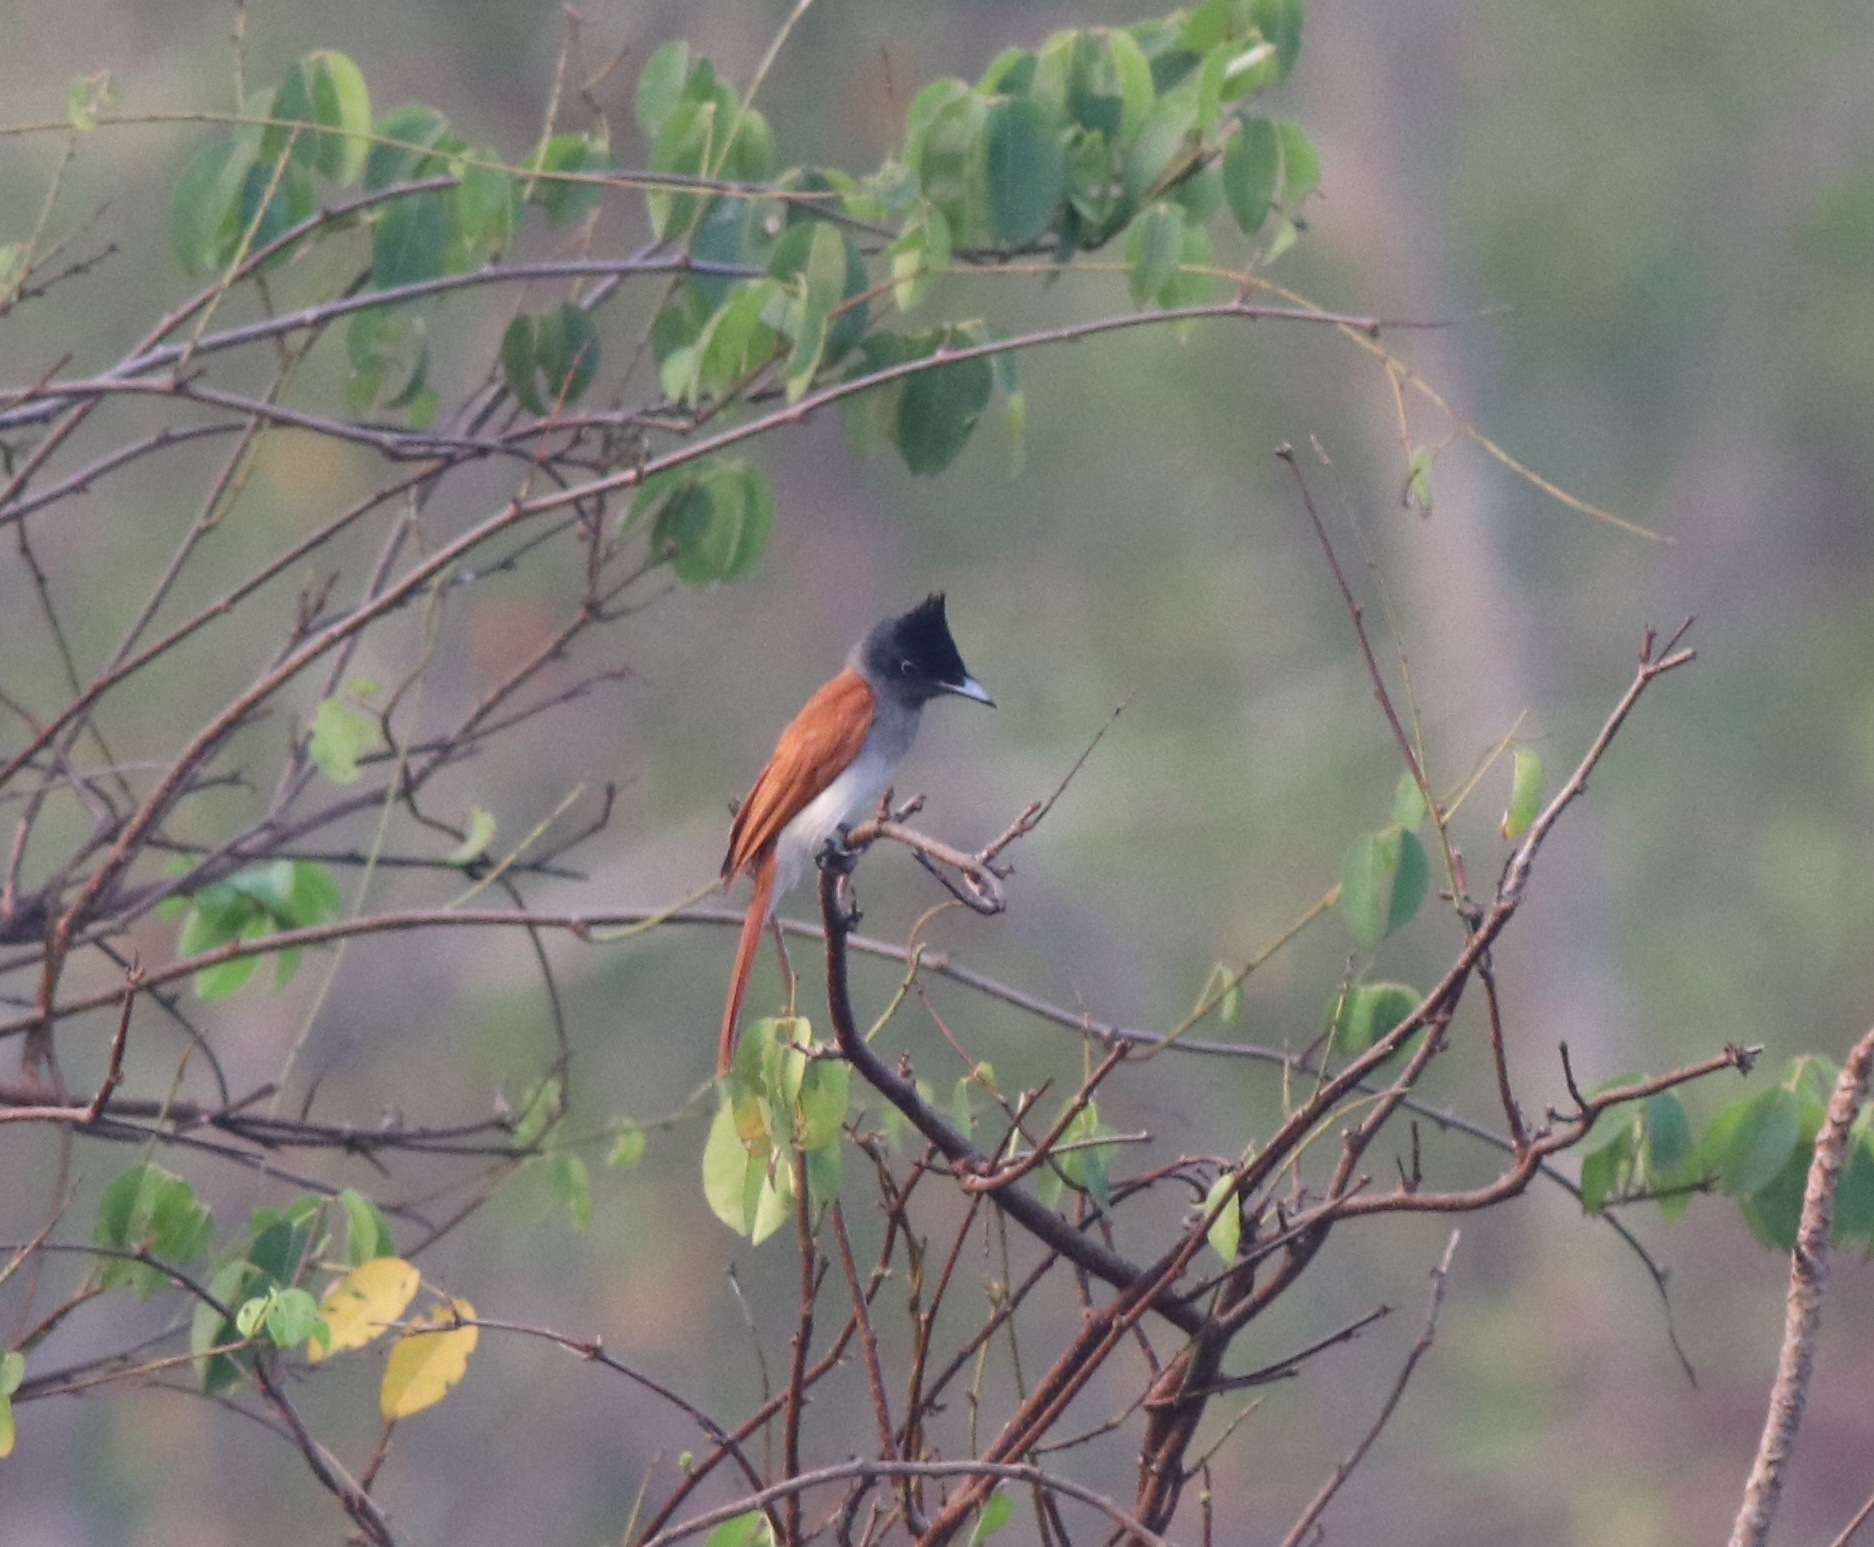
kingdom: Animalia
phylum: Chordata
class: Aves
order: Passeriformes
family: Monarchidae
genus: Terpsiphone
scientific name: Terpsiphone paradisi
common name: Indian paradise flycatcher
